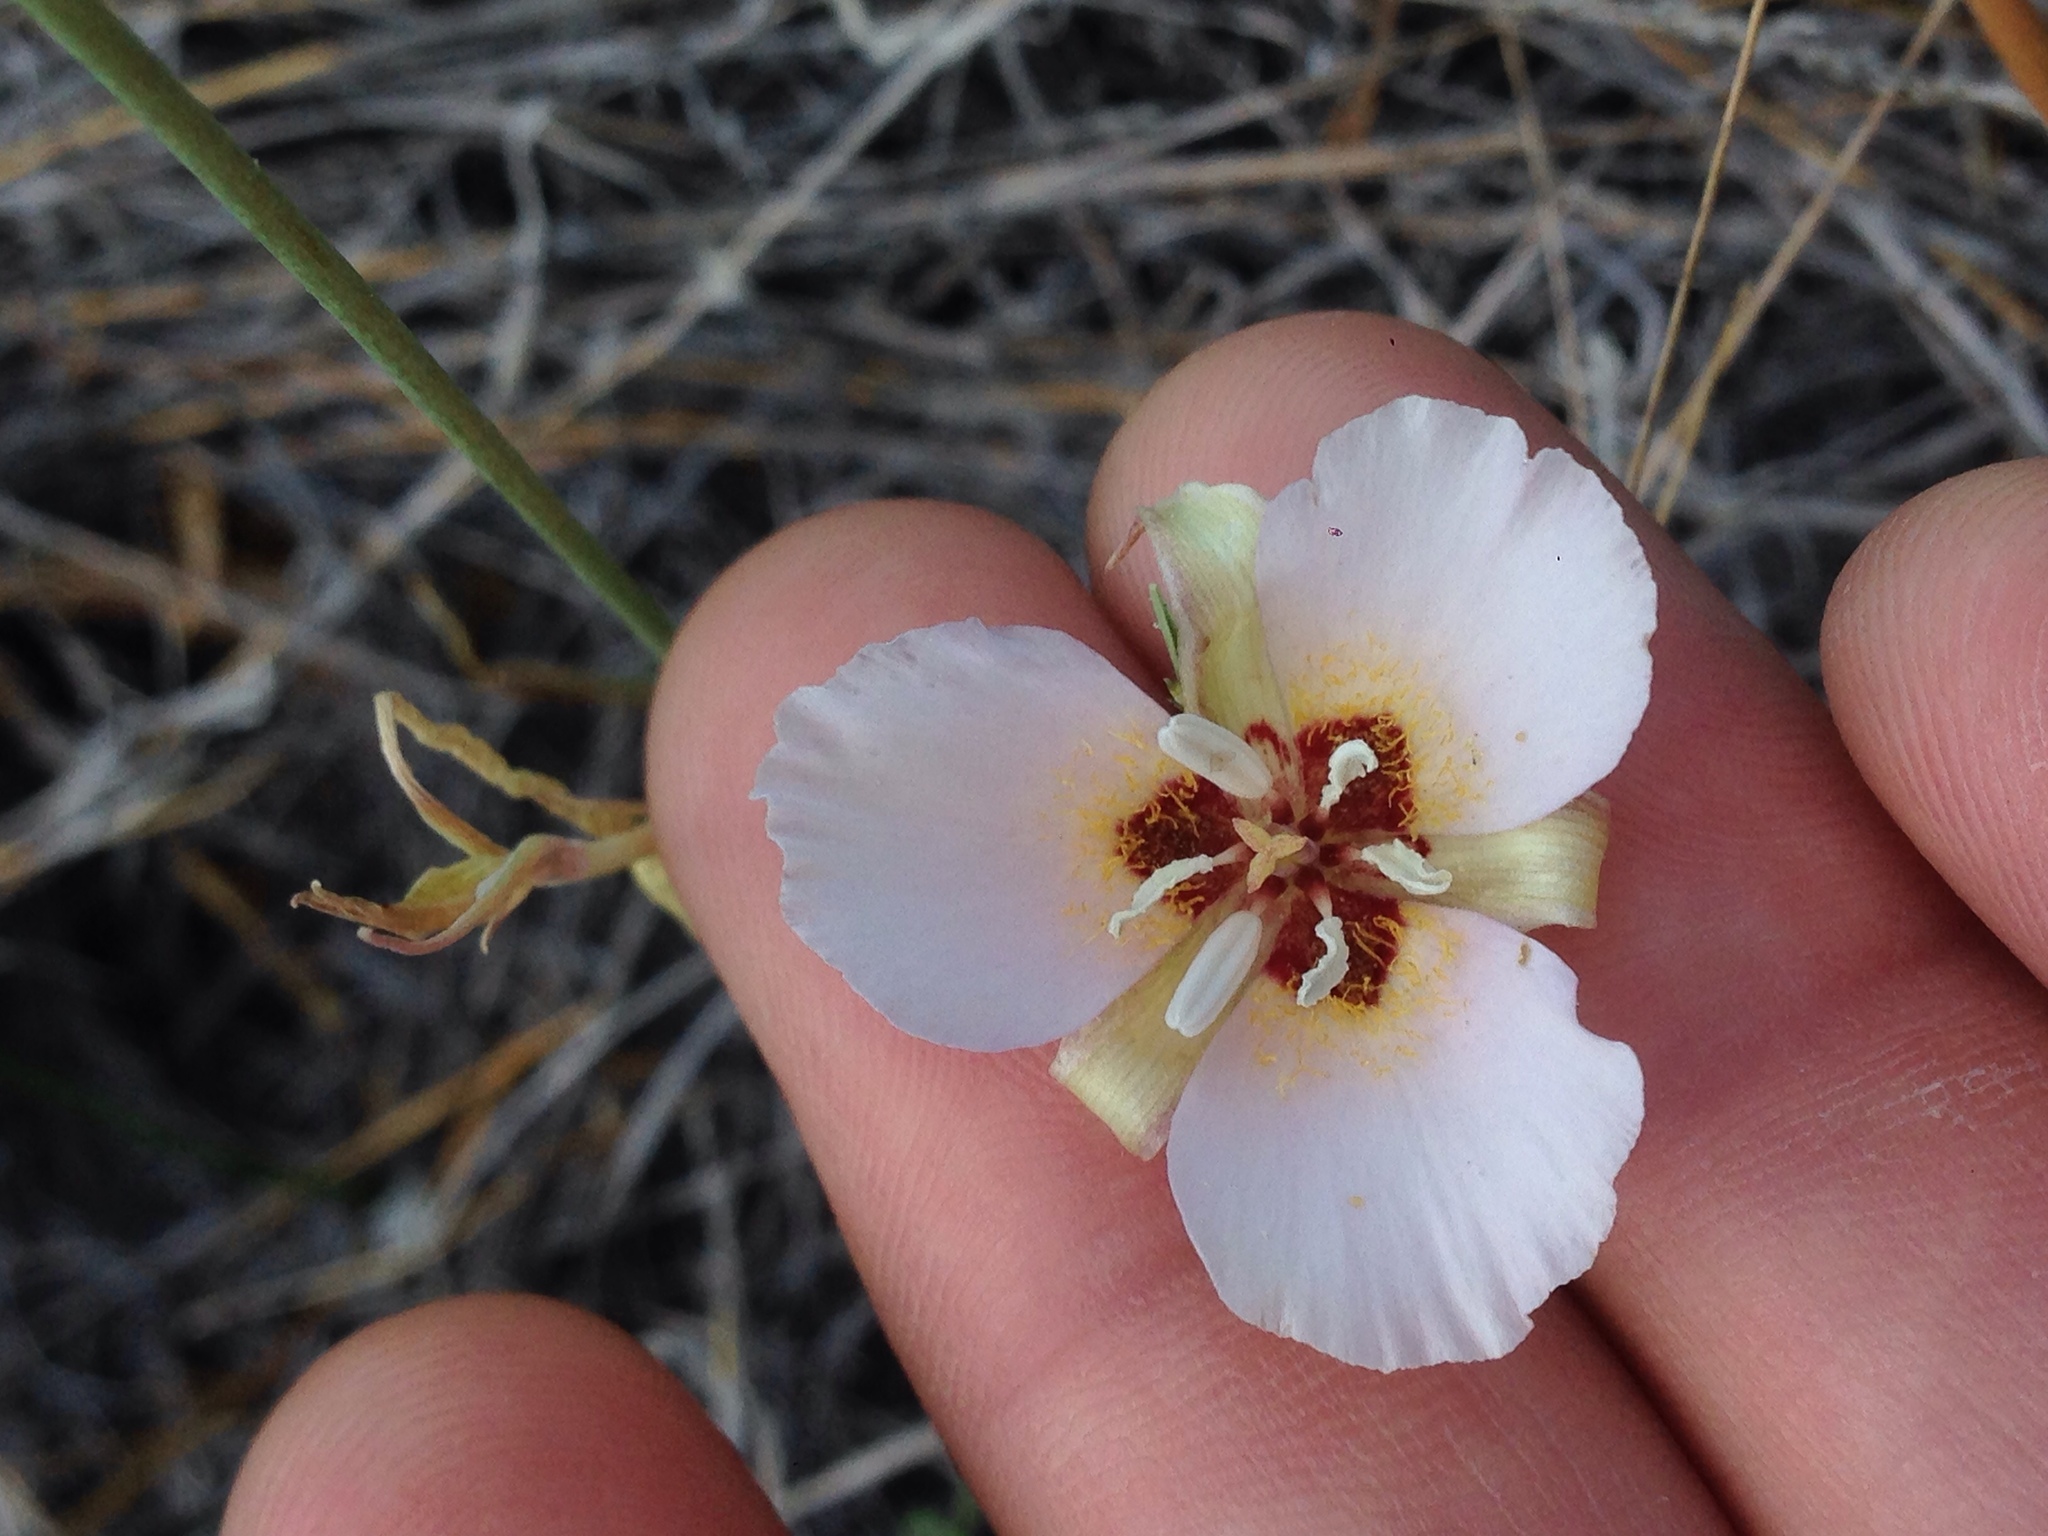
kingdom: Plantae
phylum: Tracheophyta
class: Liliopsida
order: Liliales
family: Liliaceae
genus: Calochortus
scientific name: Calochortus palmeri
